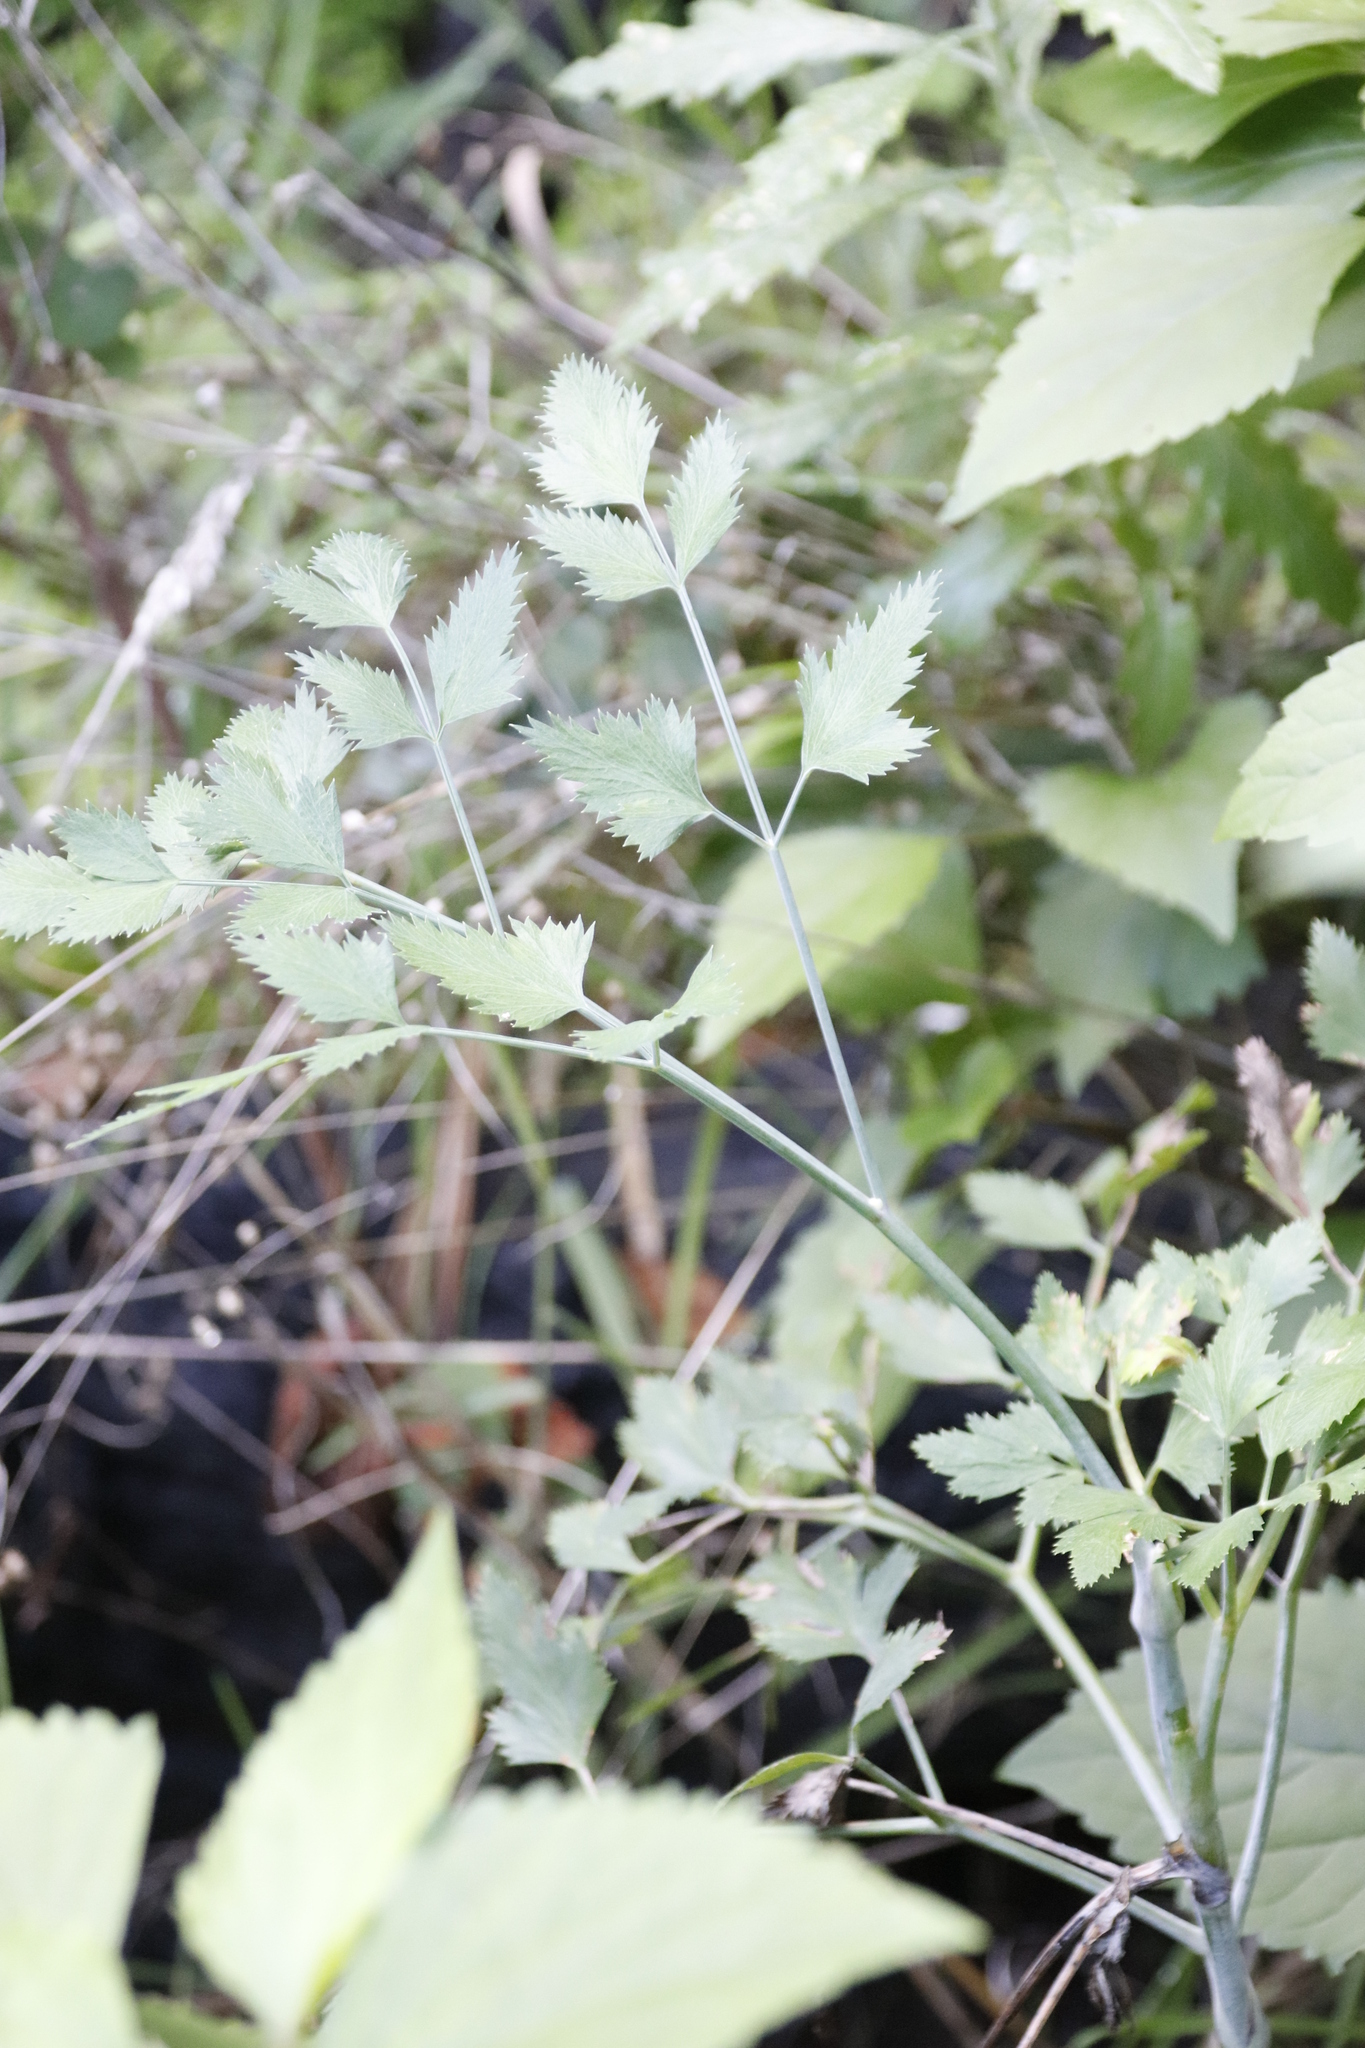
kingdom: Plantae
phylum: Tracheophyta
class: Magnoliopsida
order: Apiales
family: Apiaceae
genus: Notobubon
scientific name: Notobubon galbanum
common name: Blisterbush
